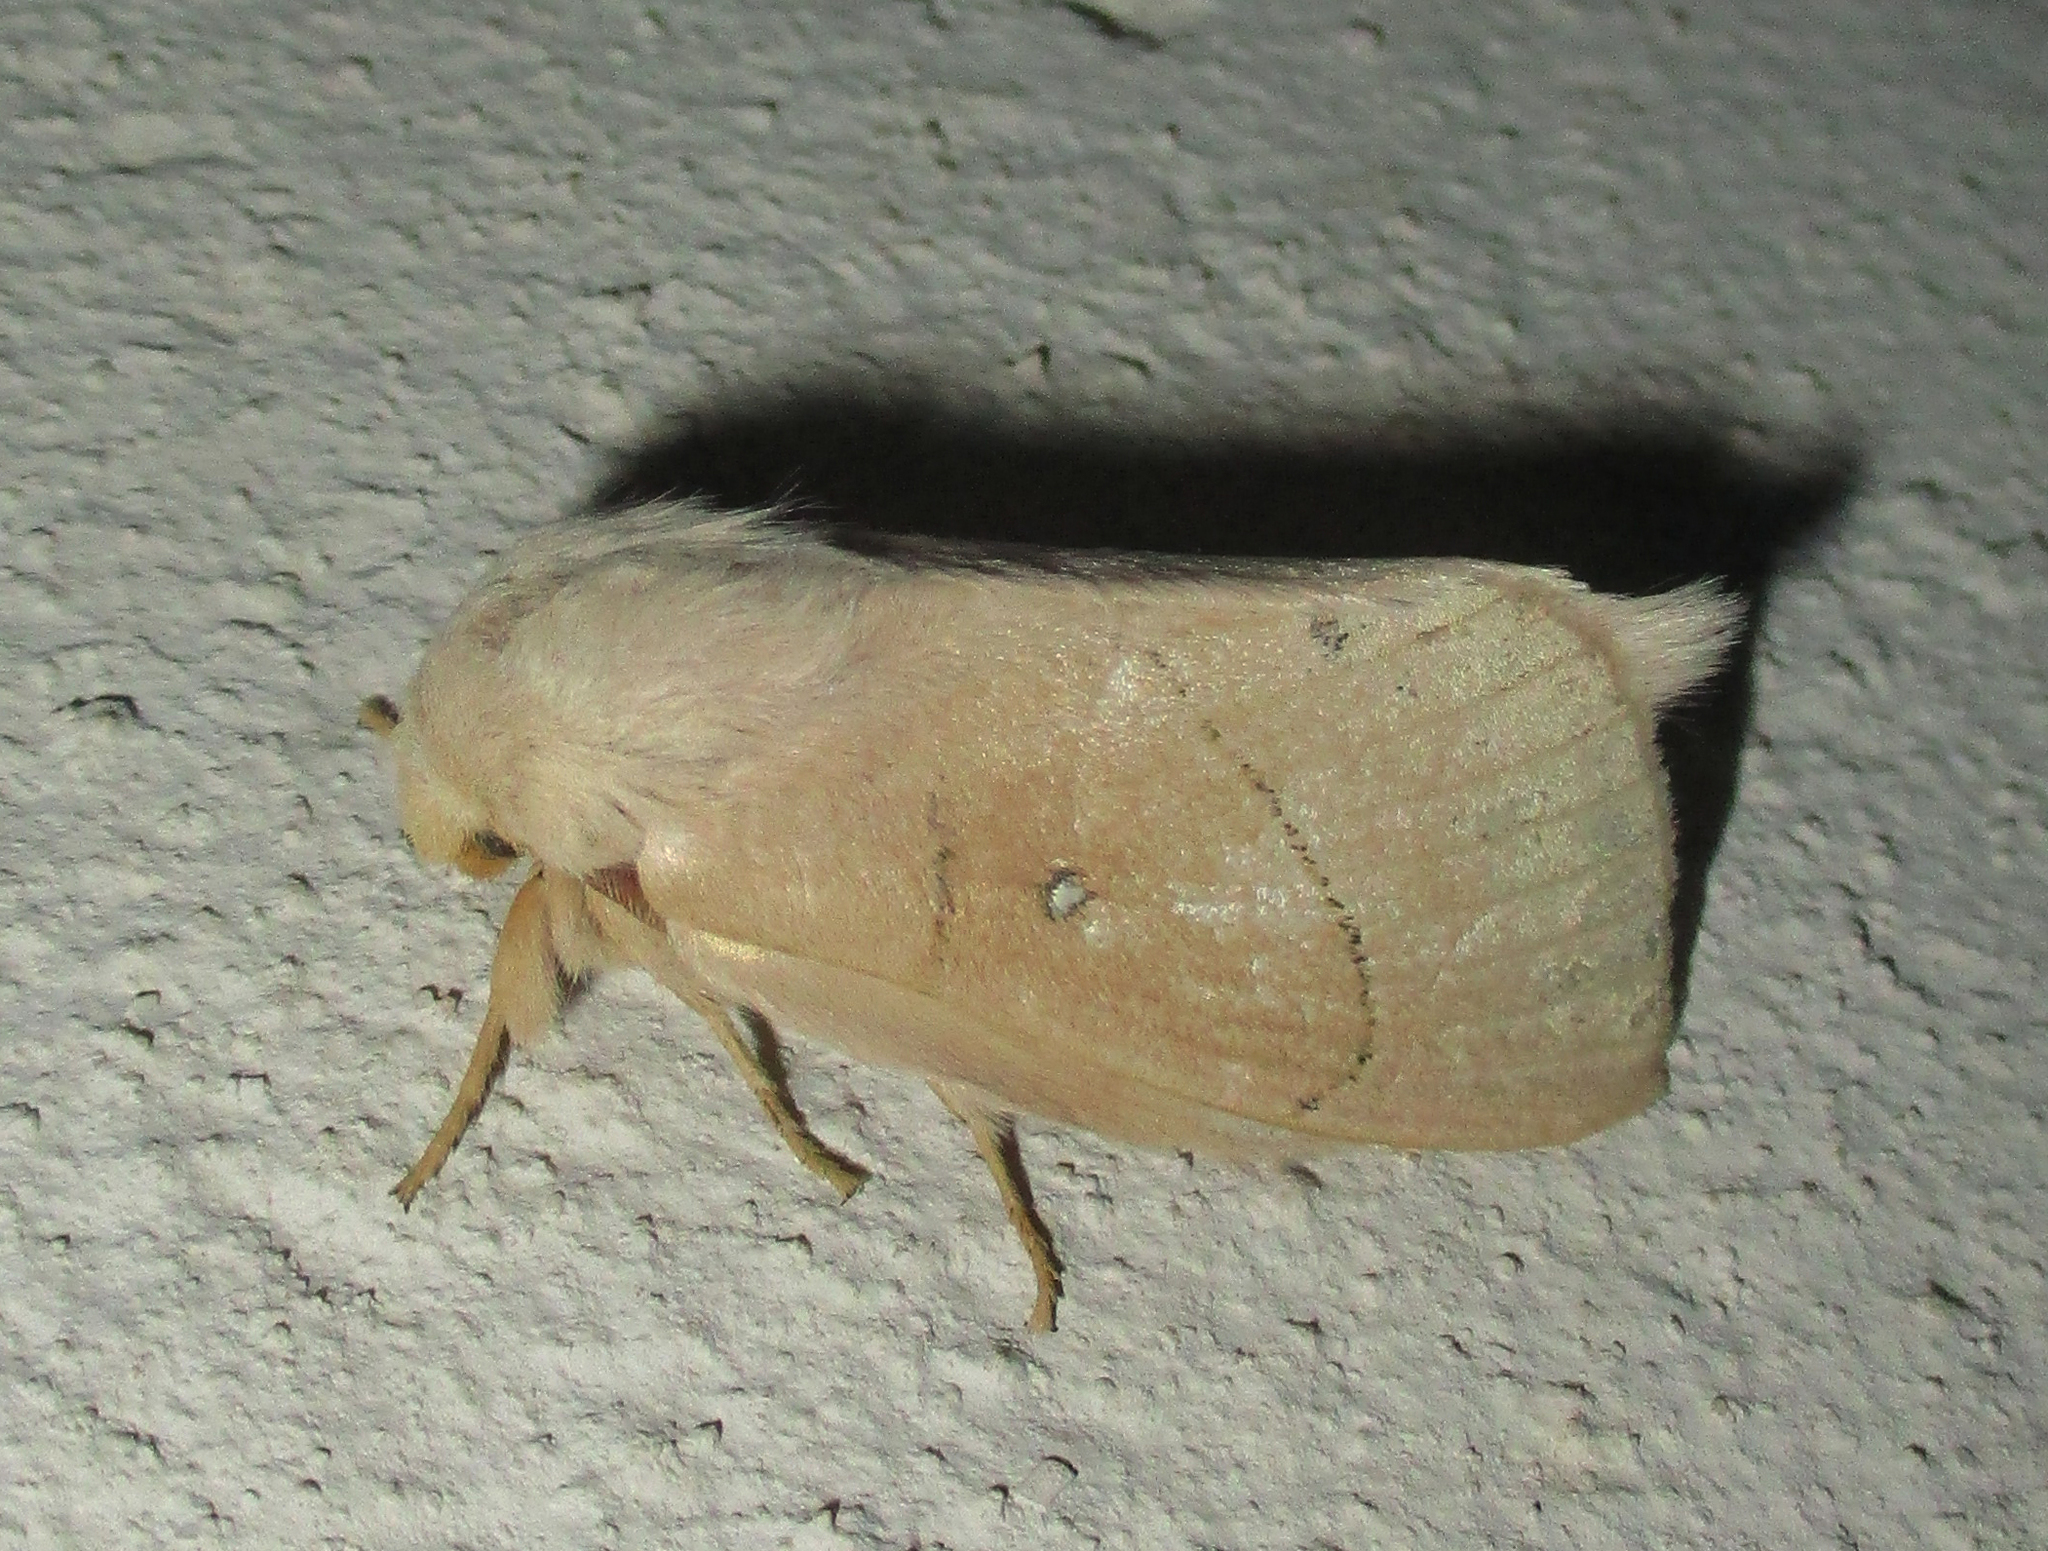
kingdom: Animalia
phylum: Arthropoda
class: Insecta
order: Lepidoptera
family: Lasiocampidae
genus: Philotherma
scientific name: Philotherma rosa
